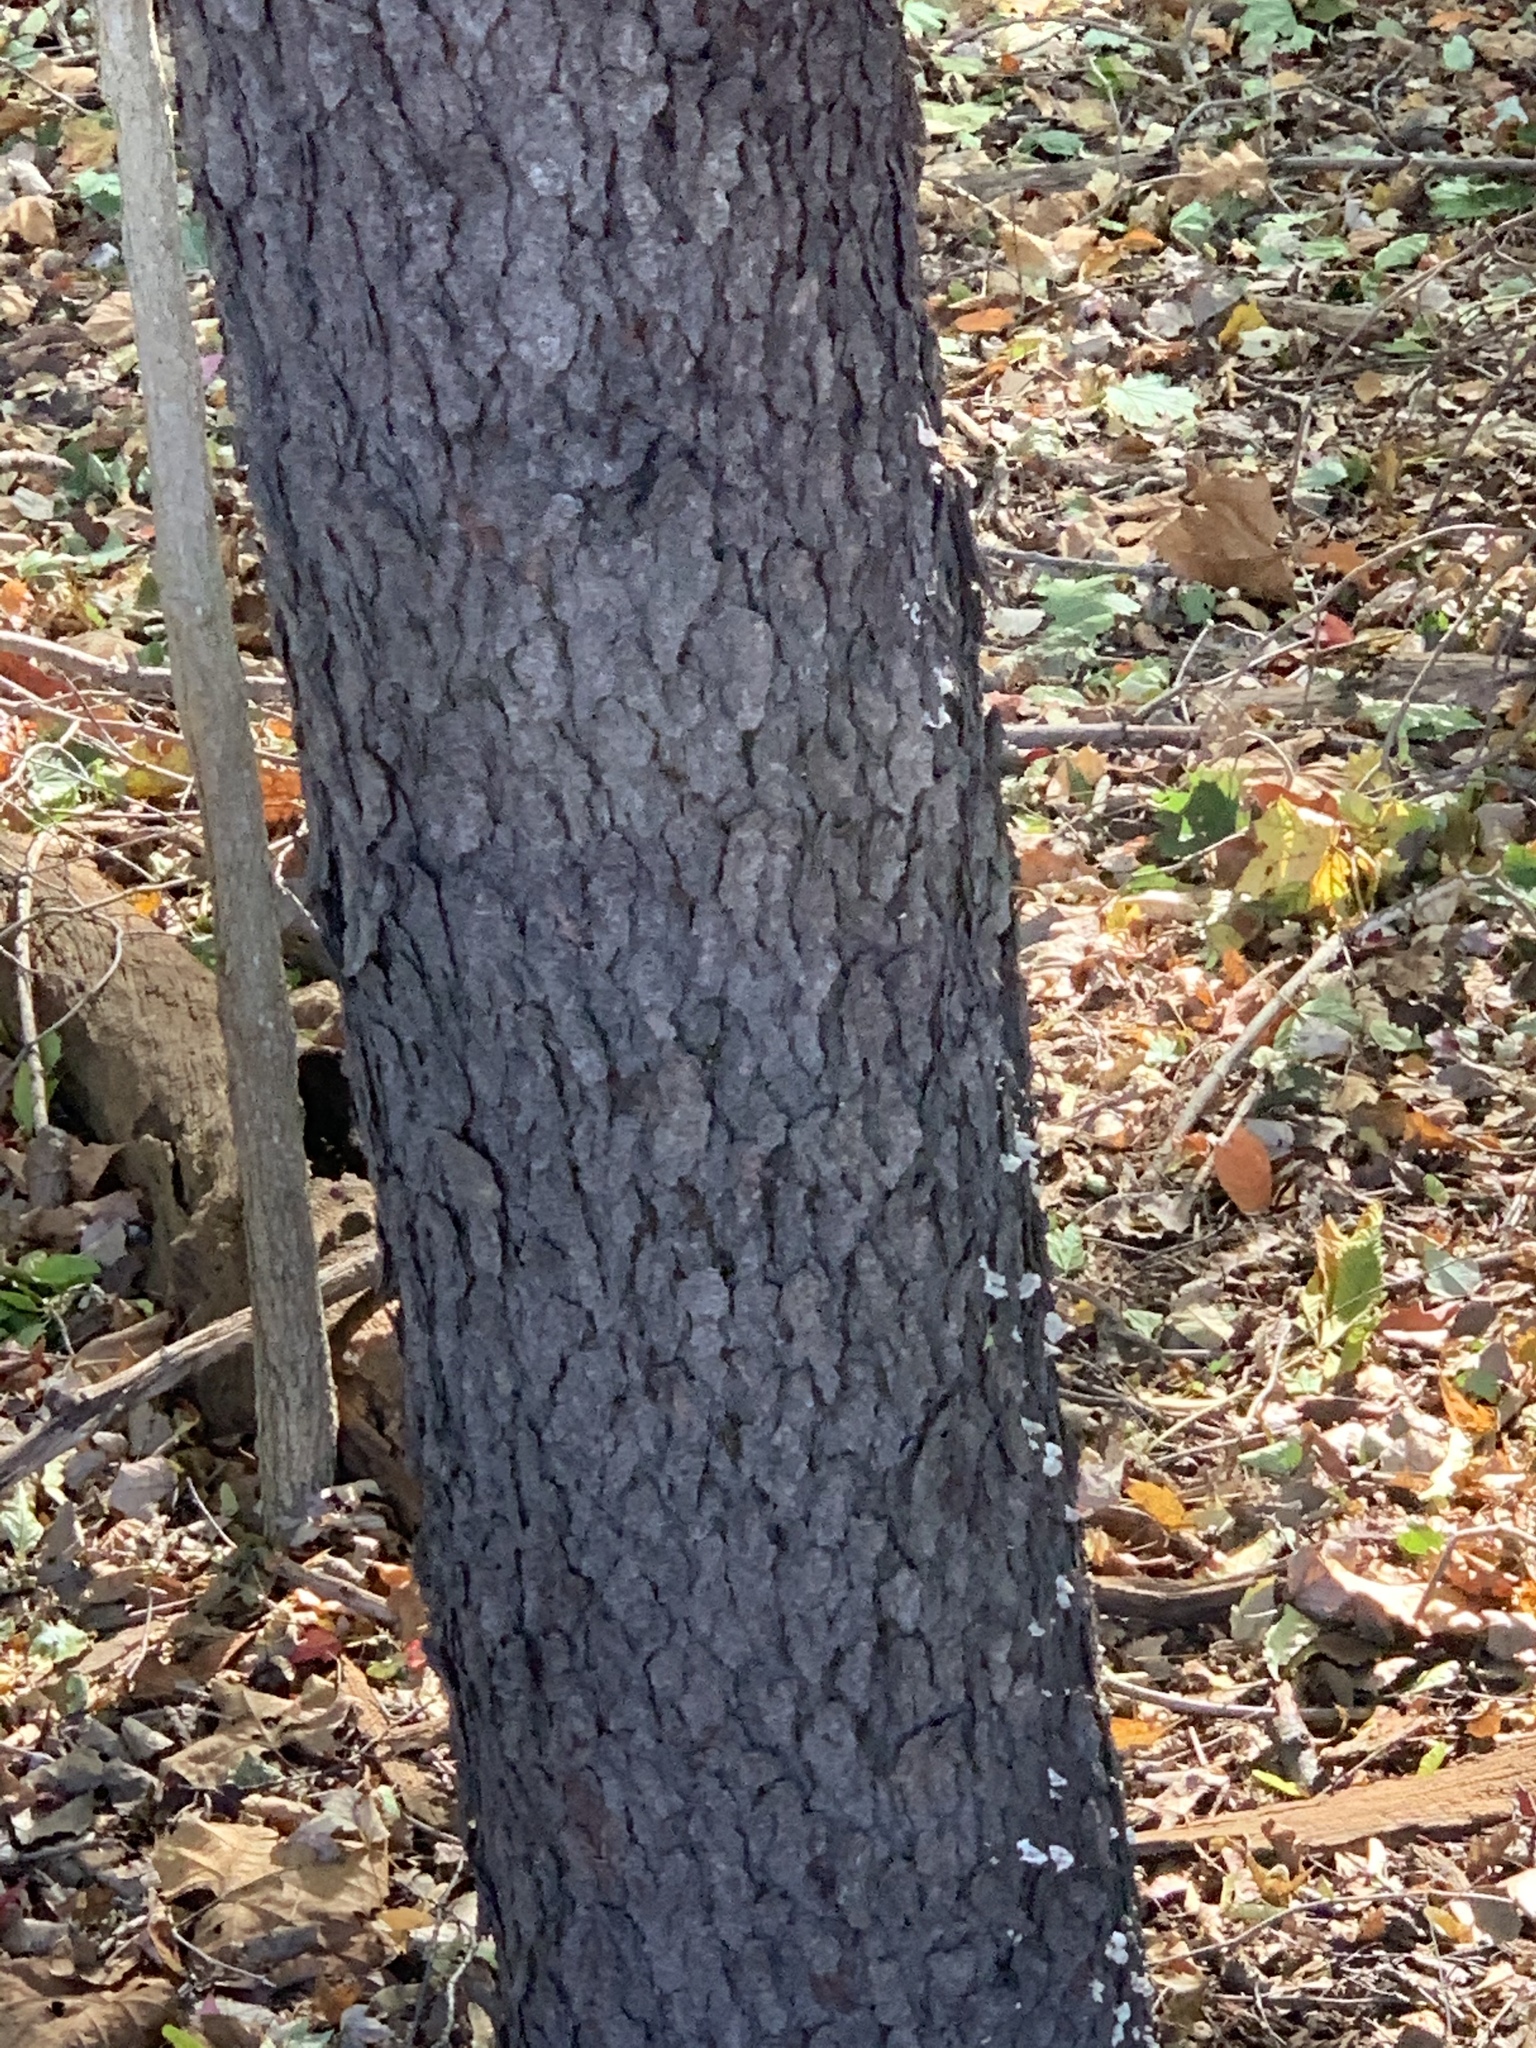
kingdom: Plantae
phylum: Tracheophyta
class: Magnoliopsida
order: Rosales
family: Rosaceae
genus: Prunus
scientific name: Prunus serotina
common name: Black cherry
